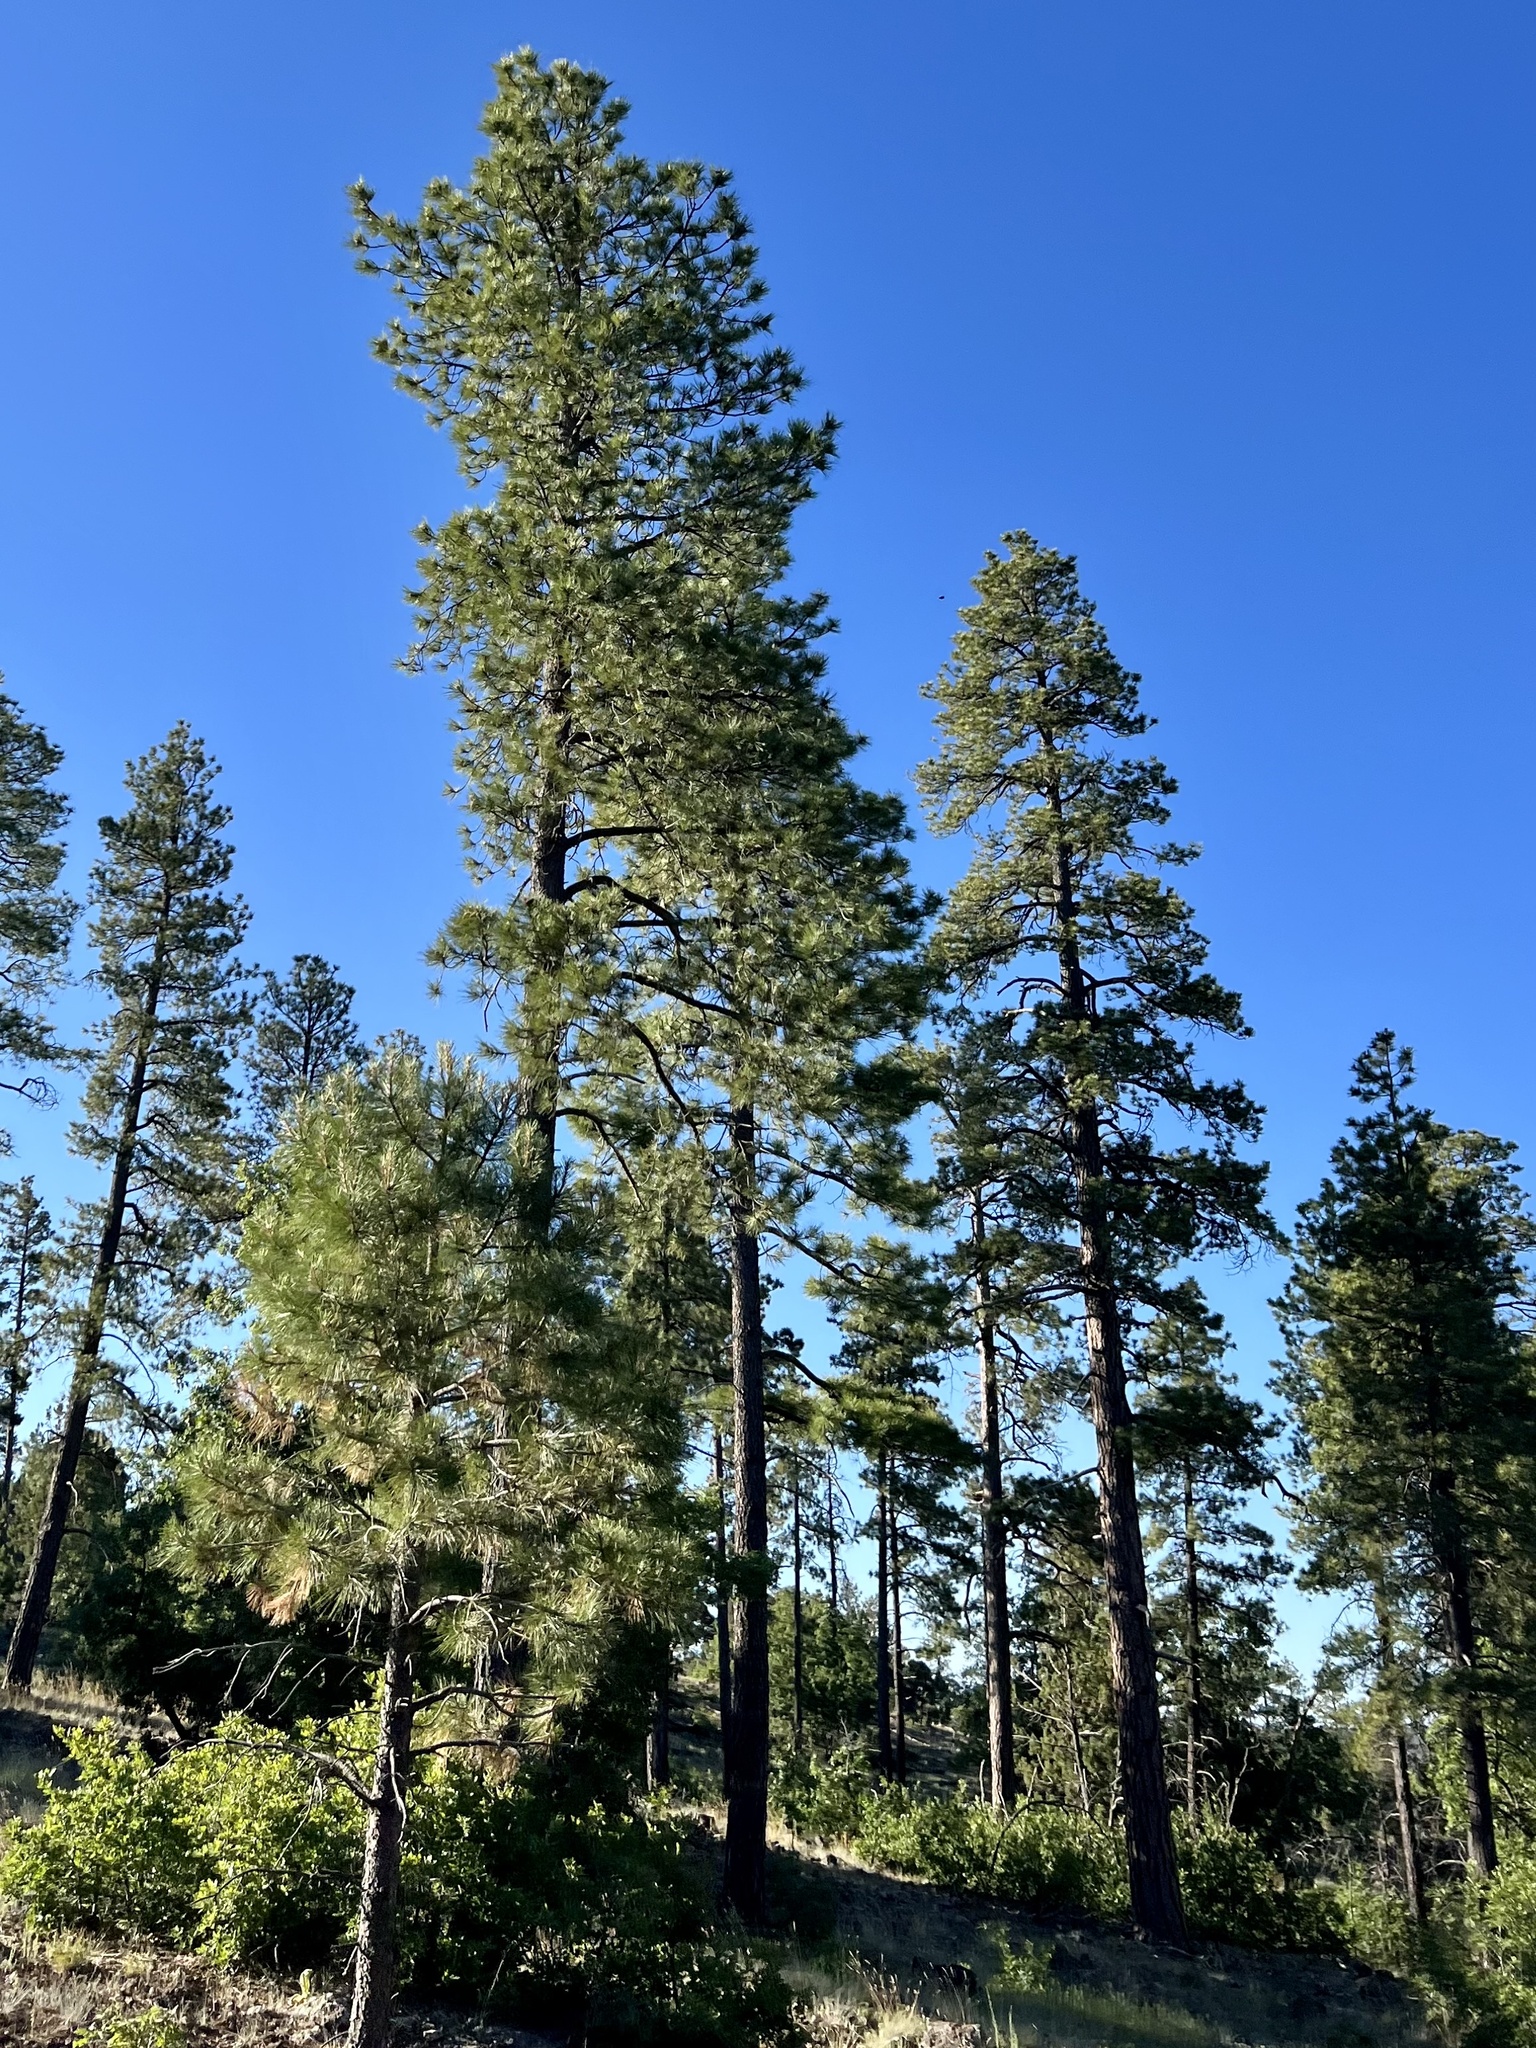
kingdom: Plantae
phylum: Tracheophyta
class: Pinopsida
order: Pinales
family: Pinaceae
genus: Pinus
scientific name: Pinus ponderosa
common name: Western yellow-pine
